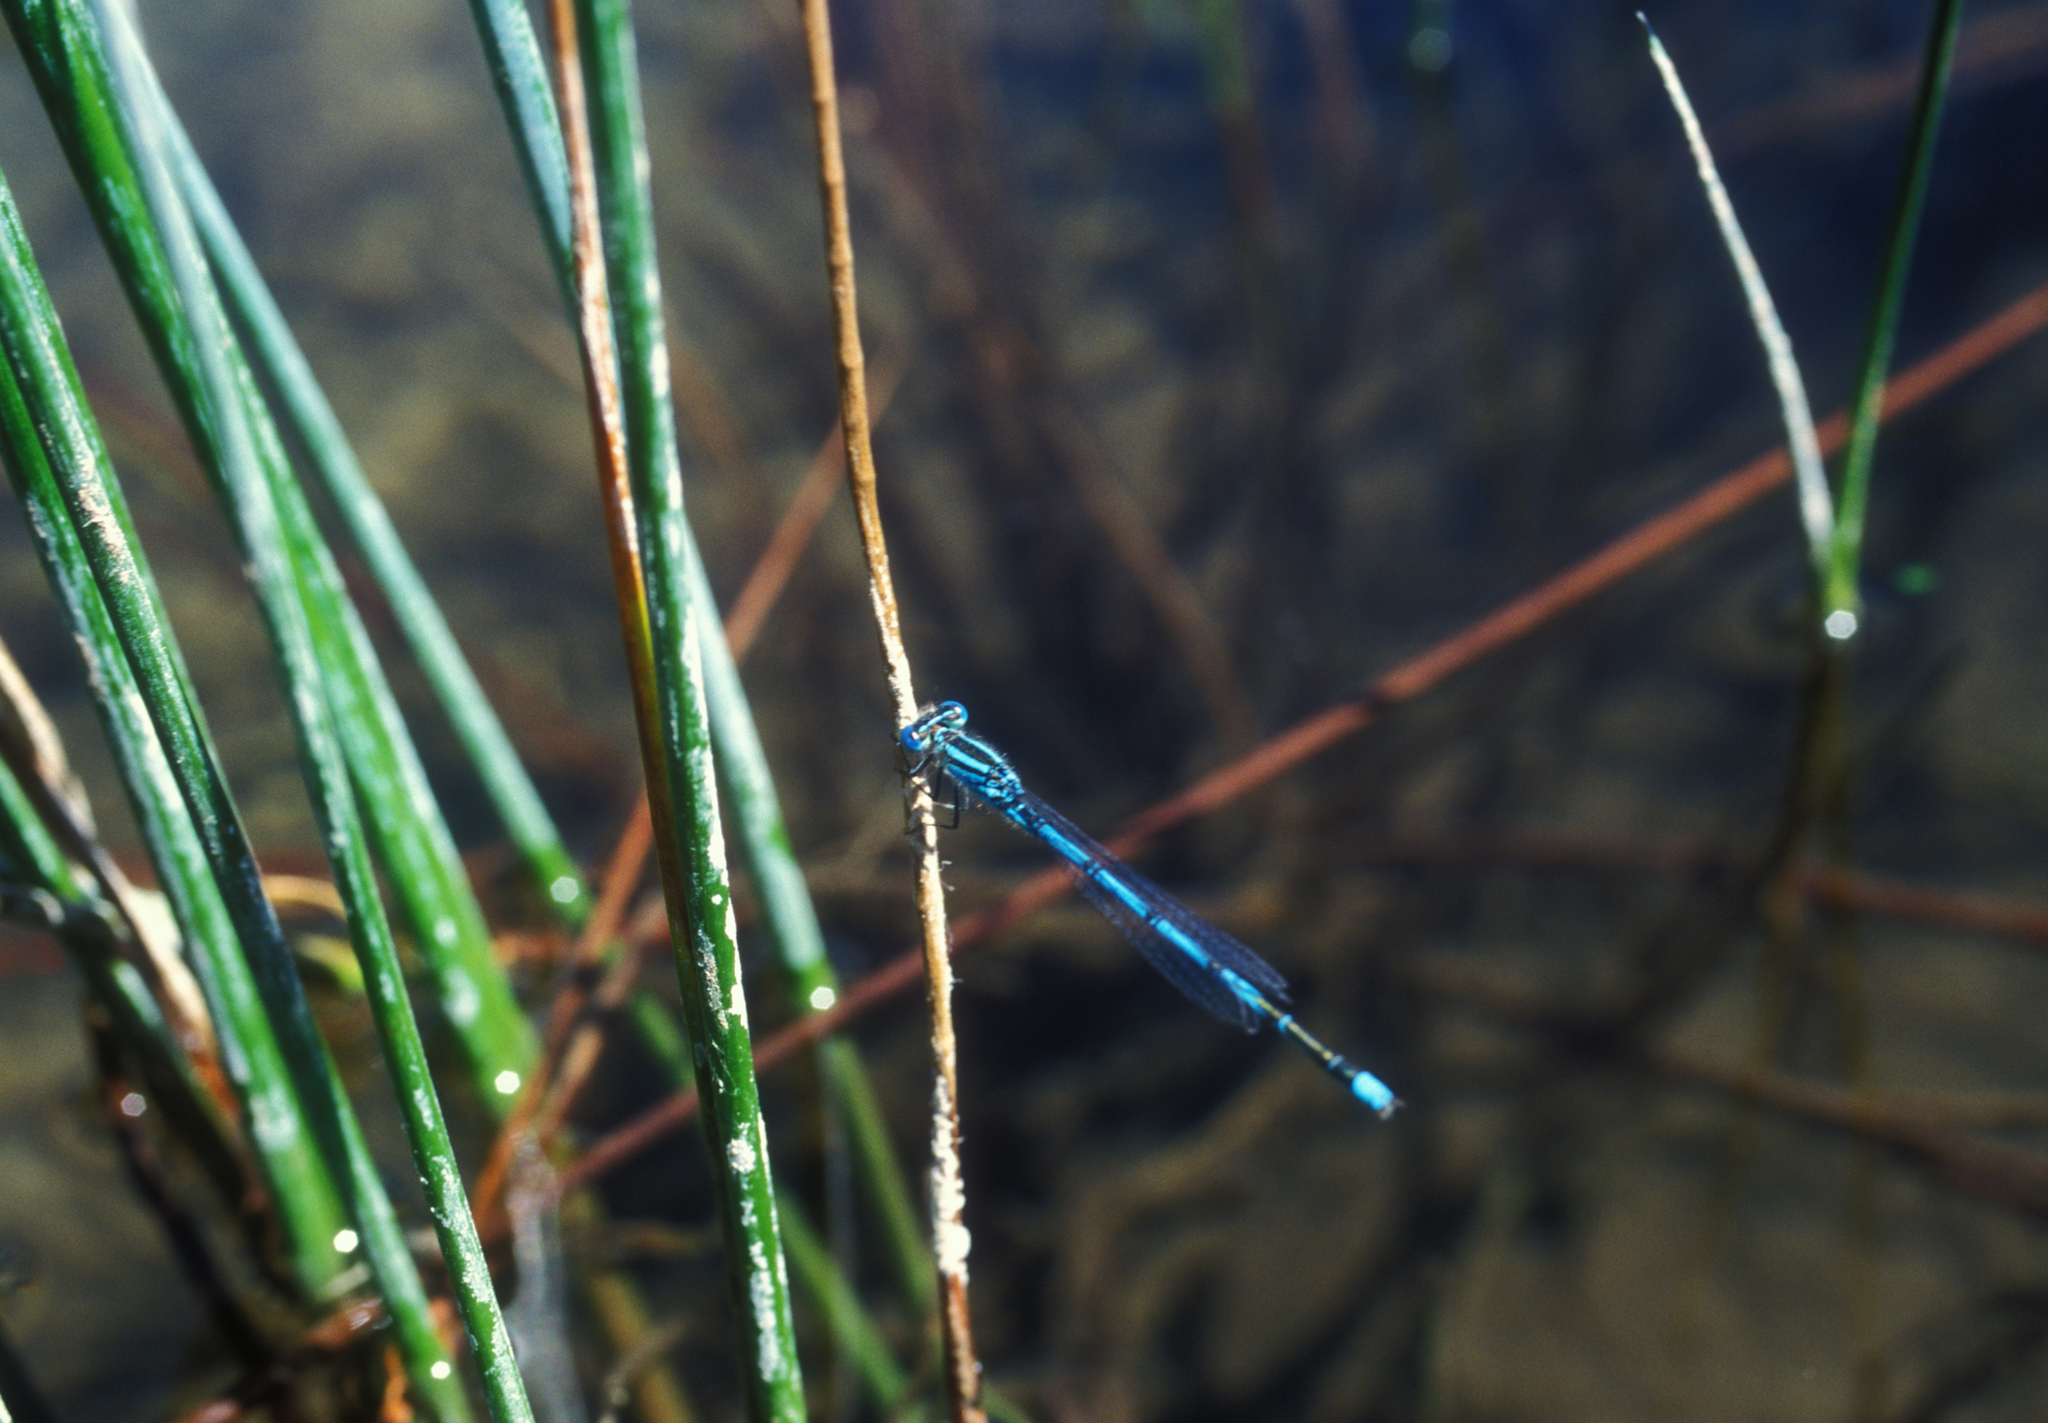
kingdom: Animalia
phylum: Arthropoda
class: Insecta
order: Odonata
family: Coenagrionidae
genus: Erythromma
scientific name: Erythromma lindenii
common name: Blue-eye
